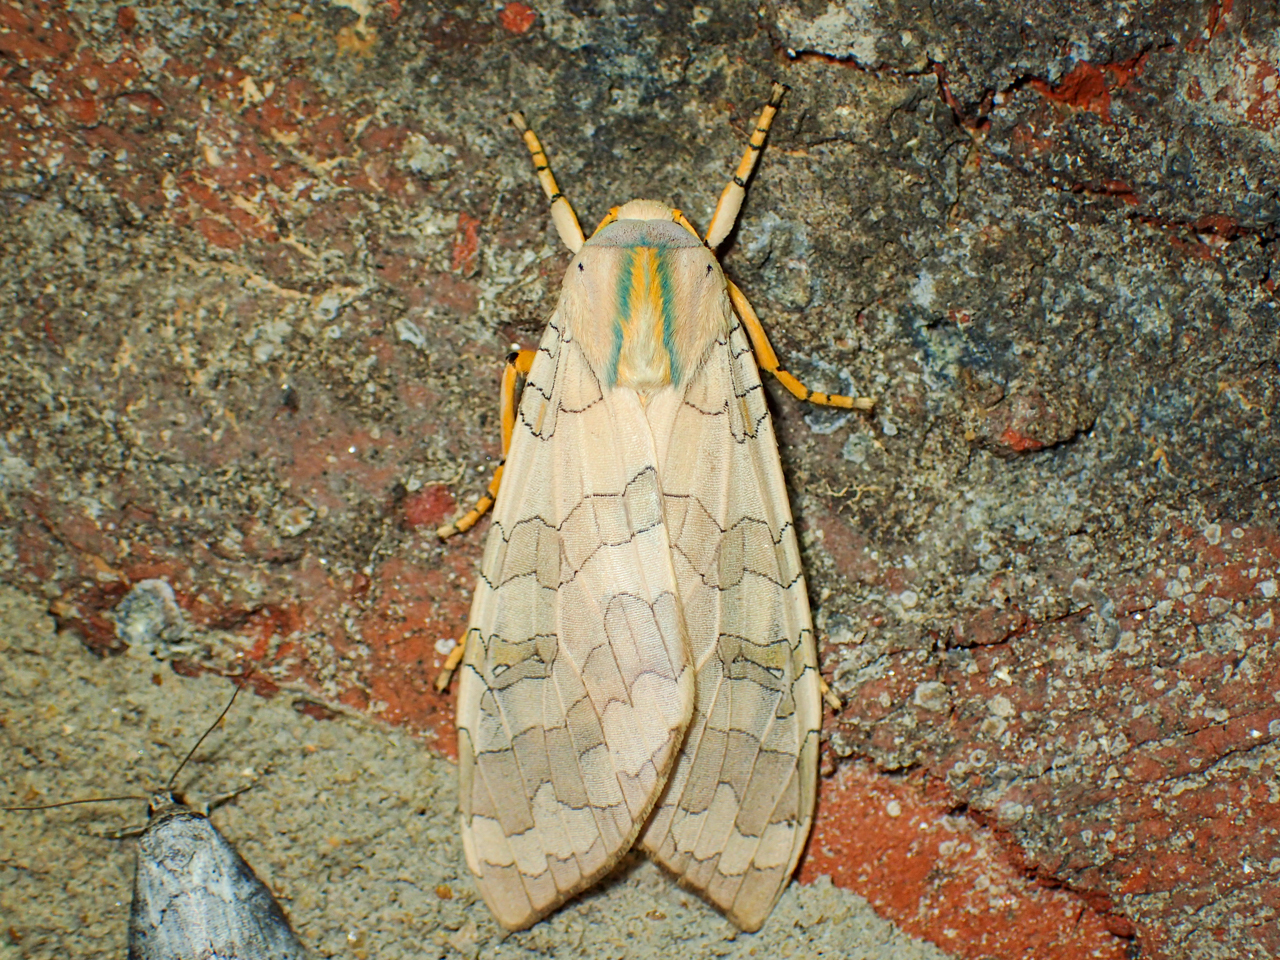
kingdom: Animalia
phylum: Arthropoda
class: Insecta
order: Lepidoptera
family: Erebidae
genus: Halysidota
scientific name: Halysidota
